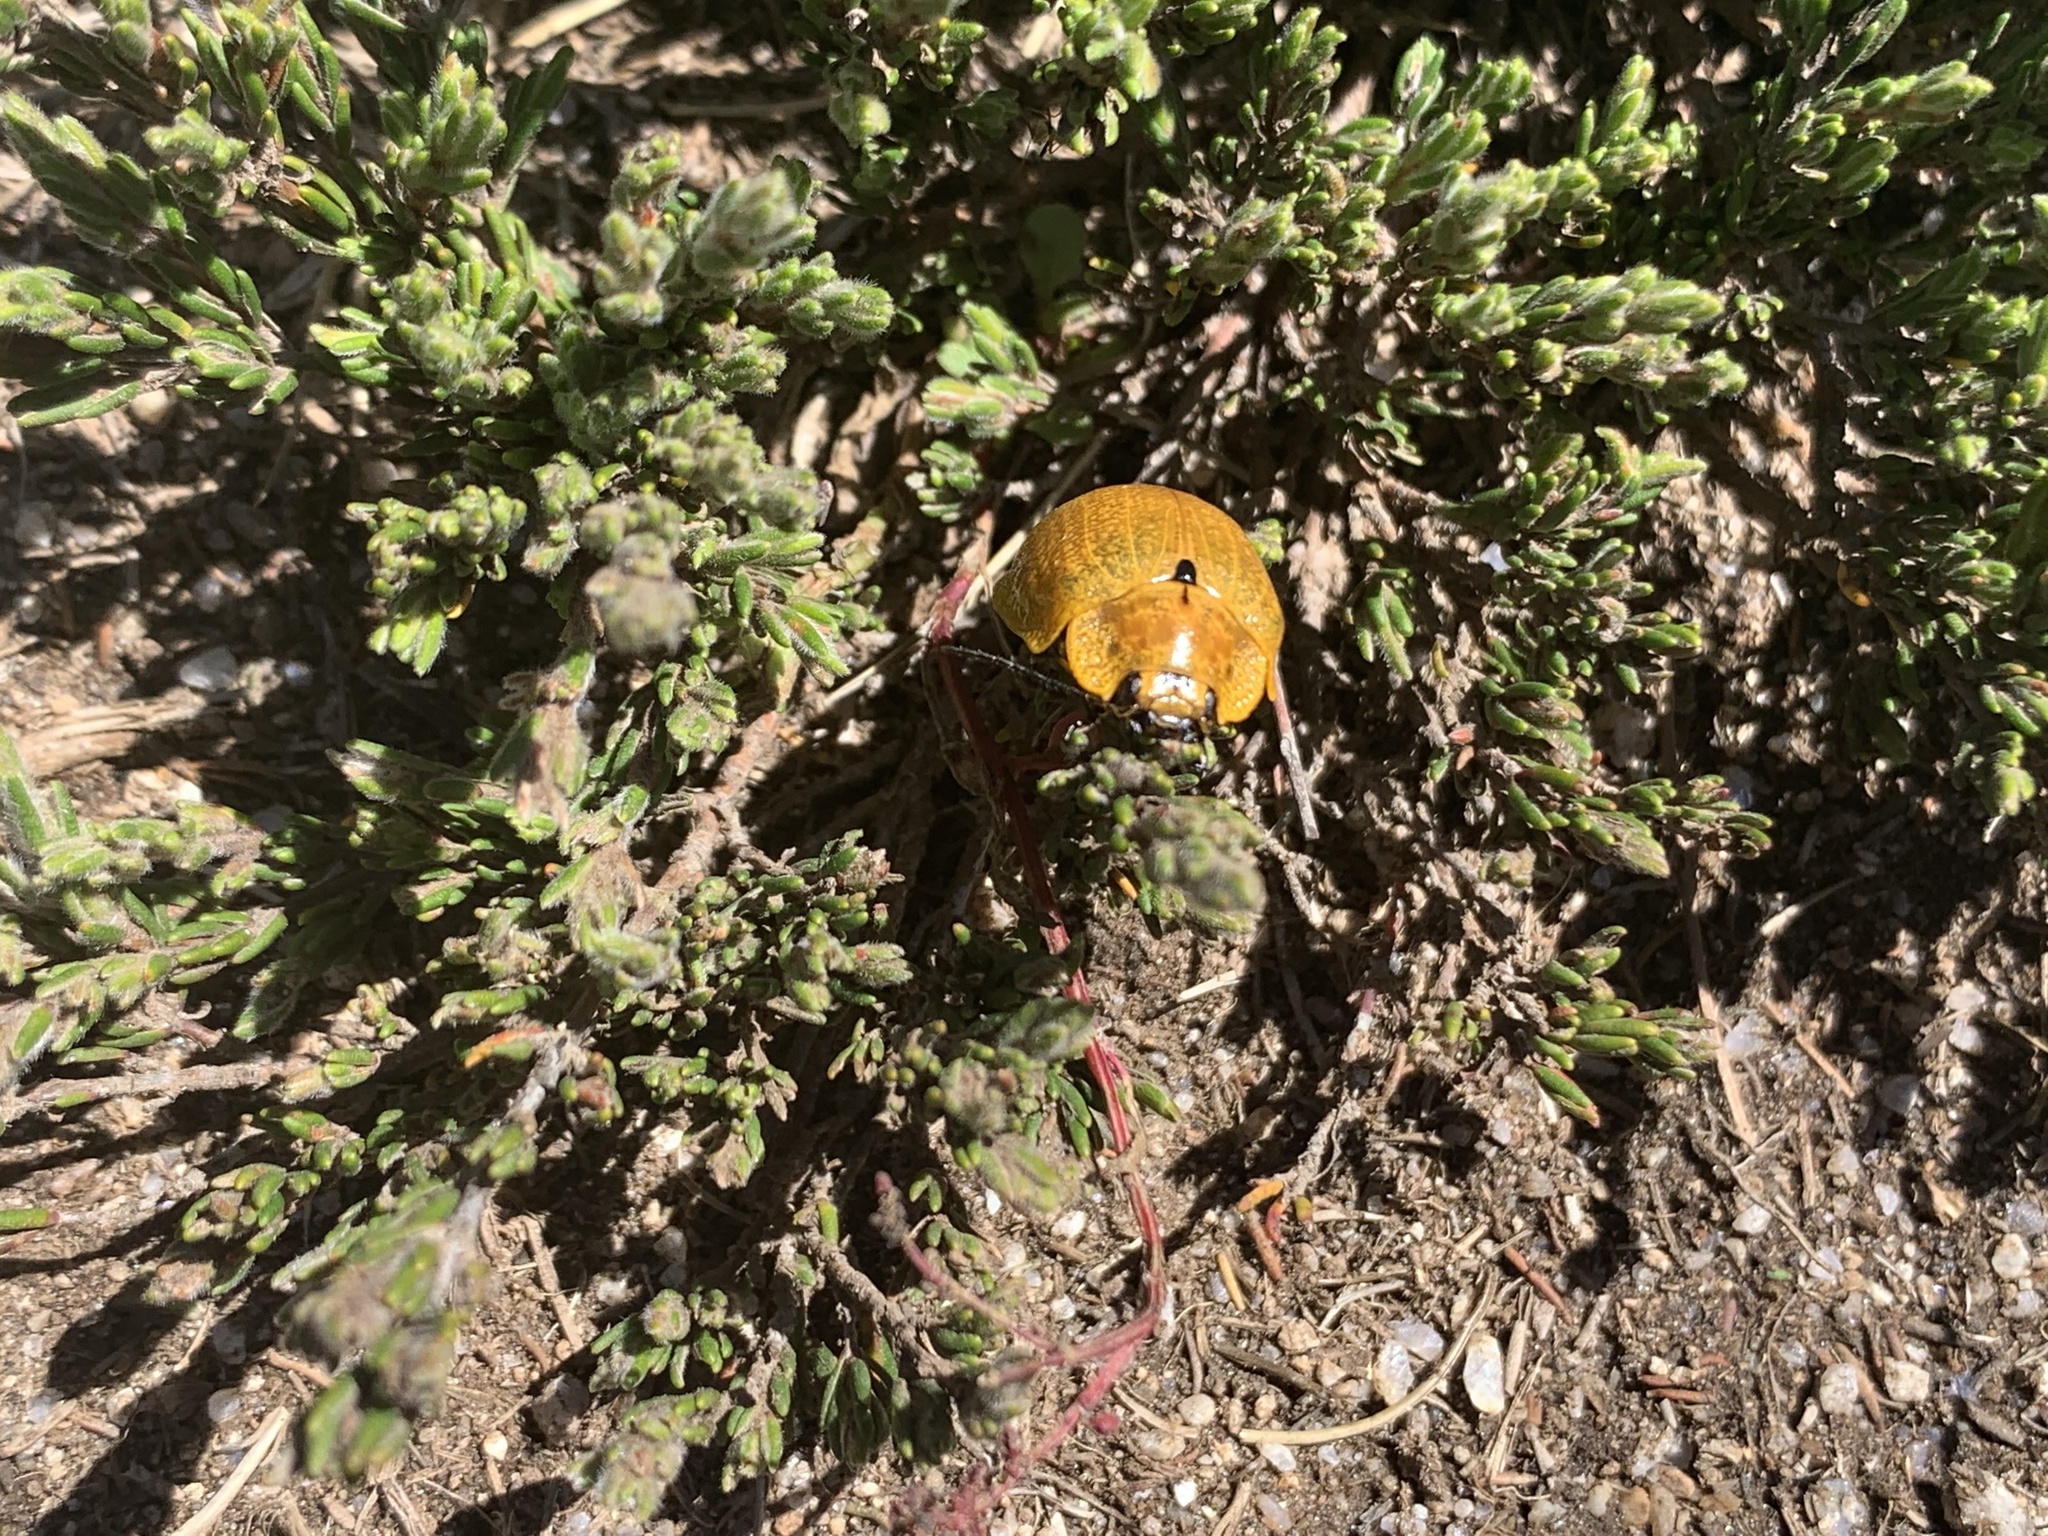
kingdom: Animalia
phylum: Arthropoda
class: Insecta
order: Coleoptera
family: Chrysomelidae
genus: Paropsis
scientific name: Paropsis
